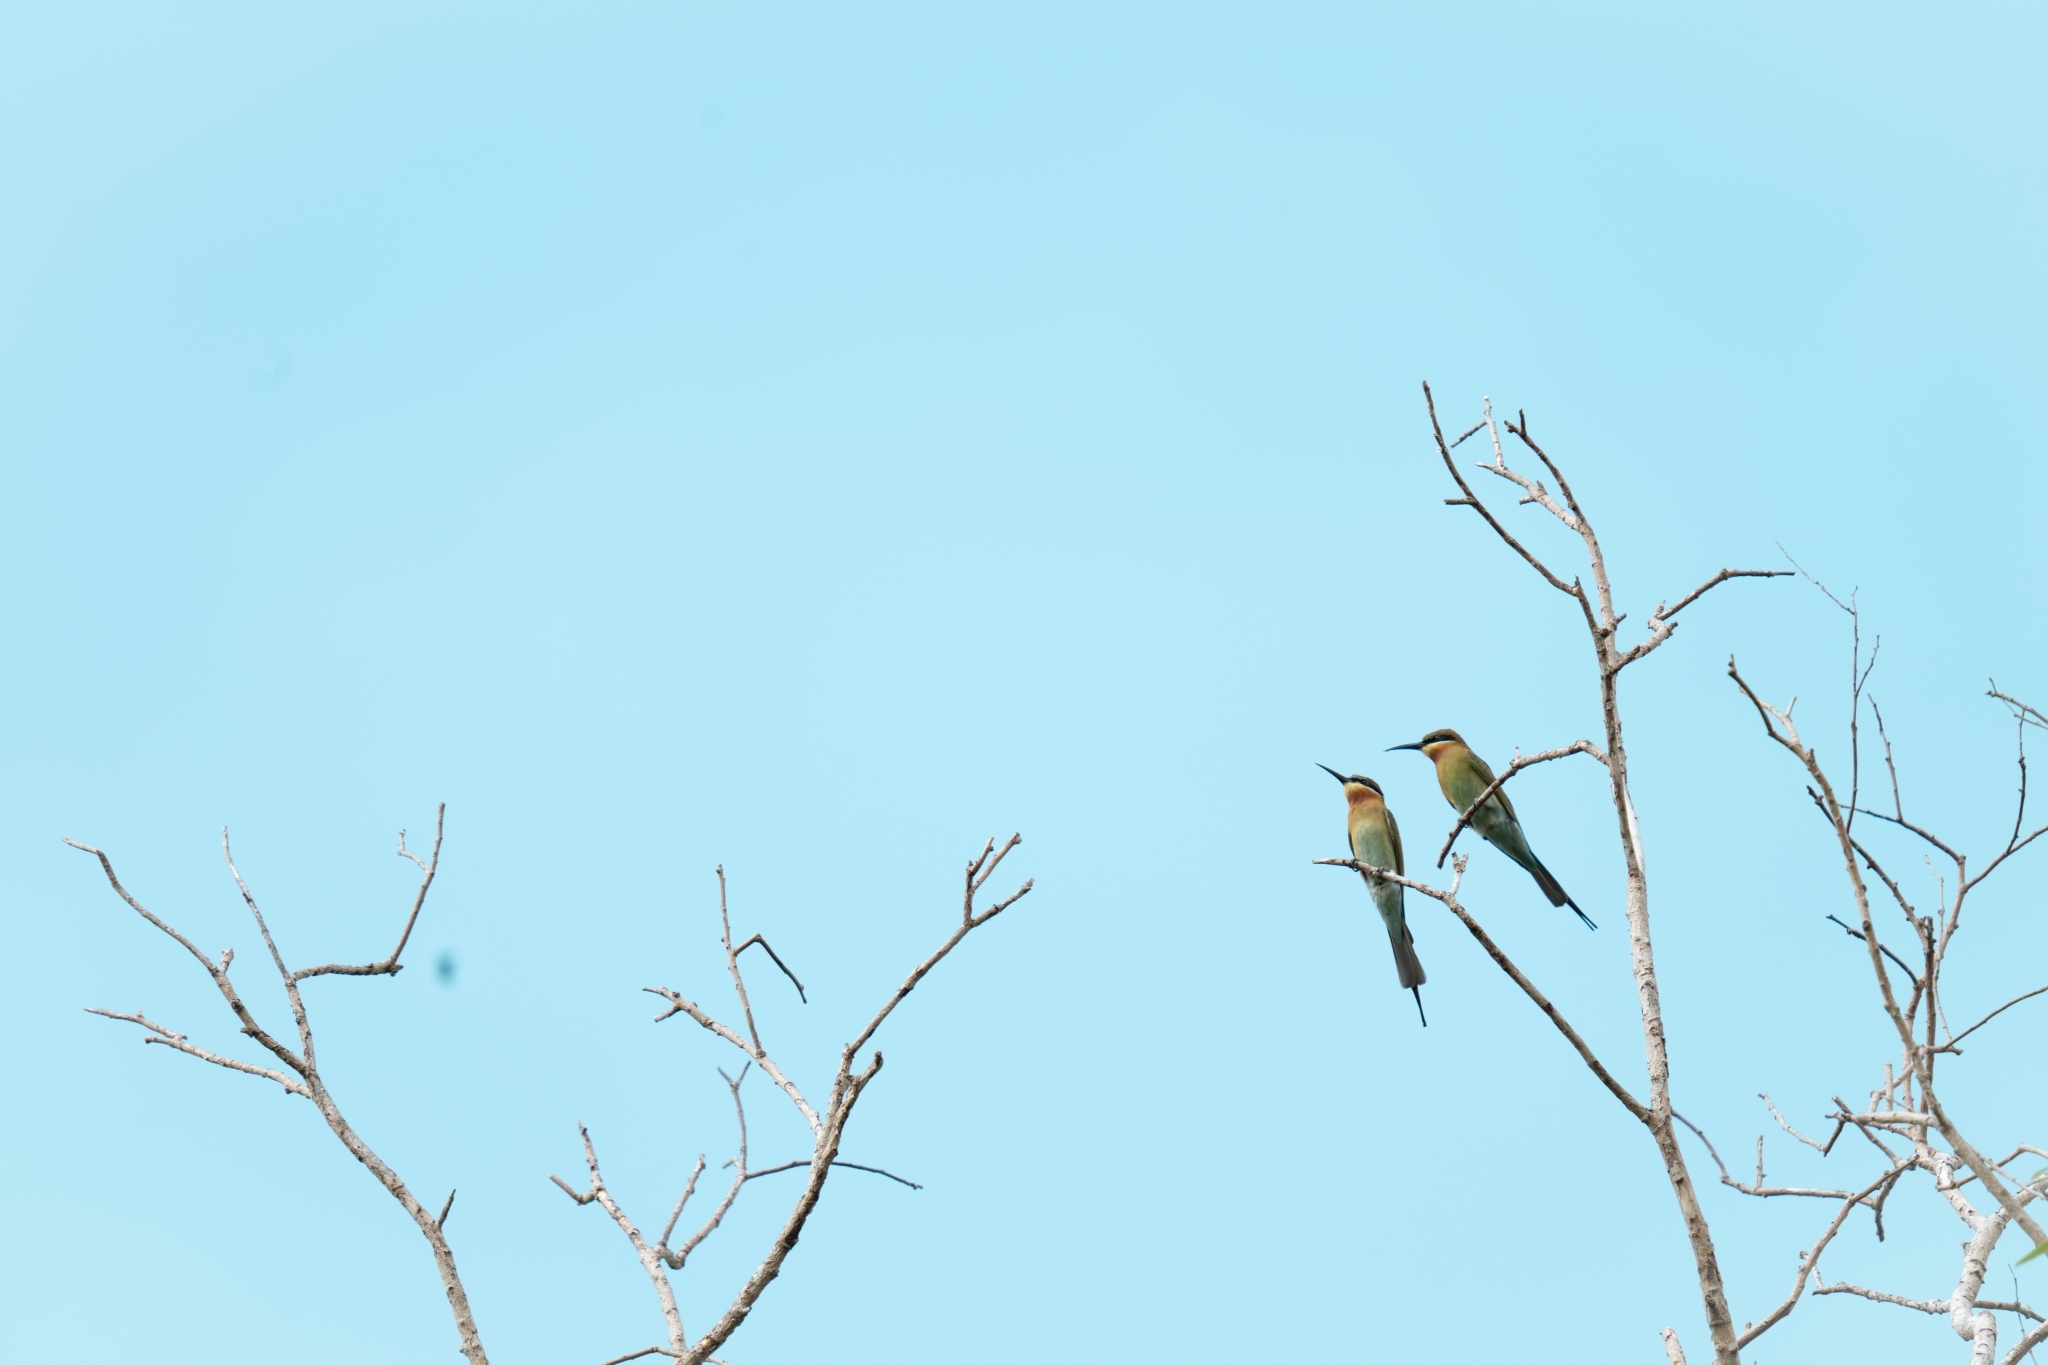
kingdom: Animalia
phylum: Chordata
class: Aves
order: Coraciiformes
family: Meropidae
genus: Merops
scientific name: Merops philippinus
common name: Blue-tailed bee-eater
